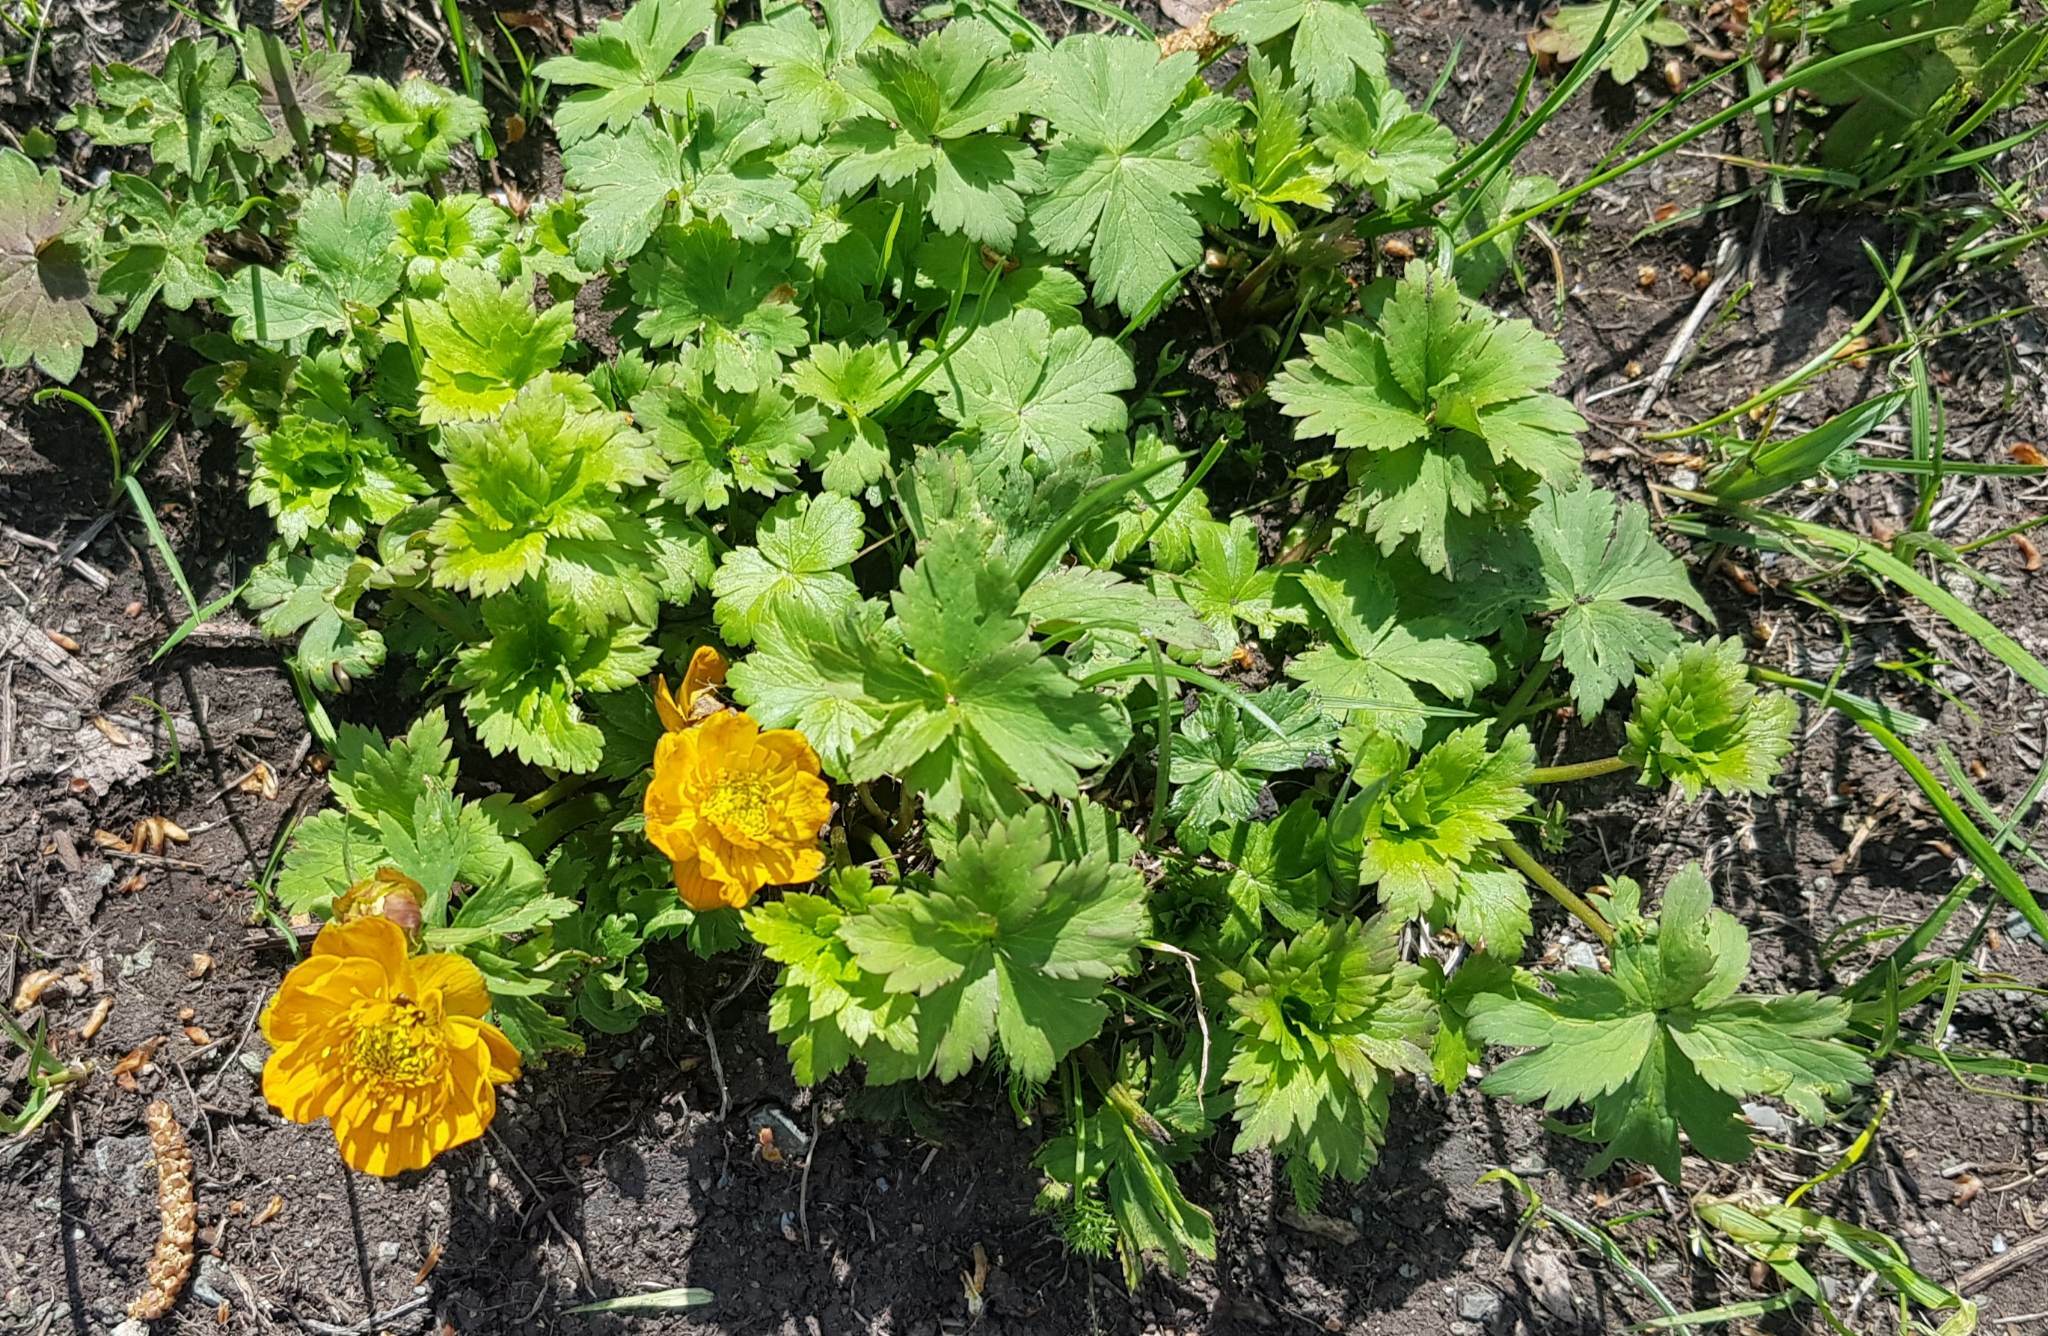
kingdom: Plantae
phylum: Tracheophyta
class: Magnoliopsida
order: Ranunculales
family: Ranunculaceae
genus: Trollius
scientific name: Trollius asiaticus
